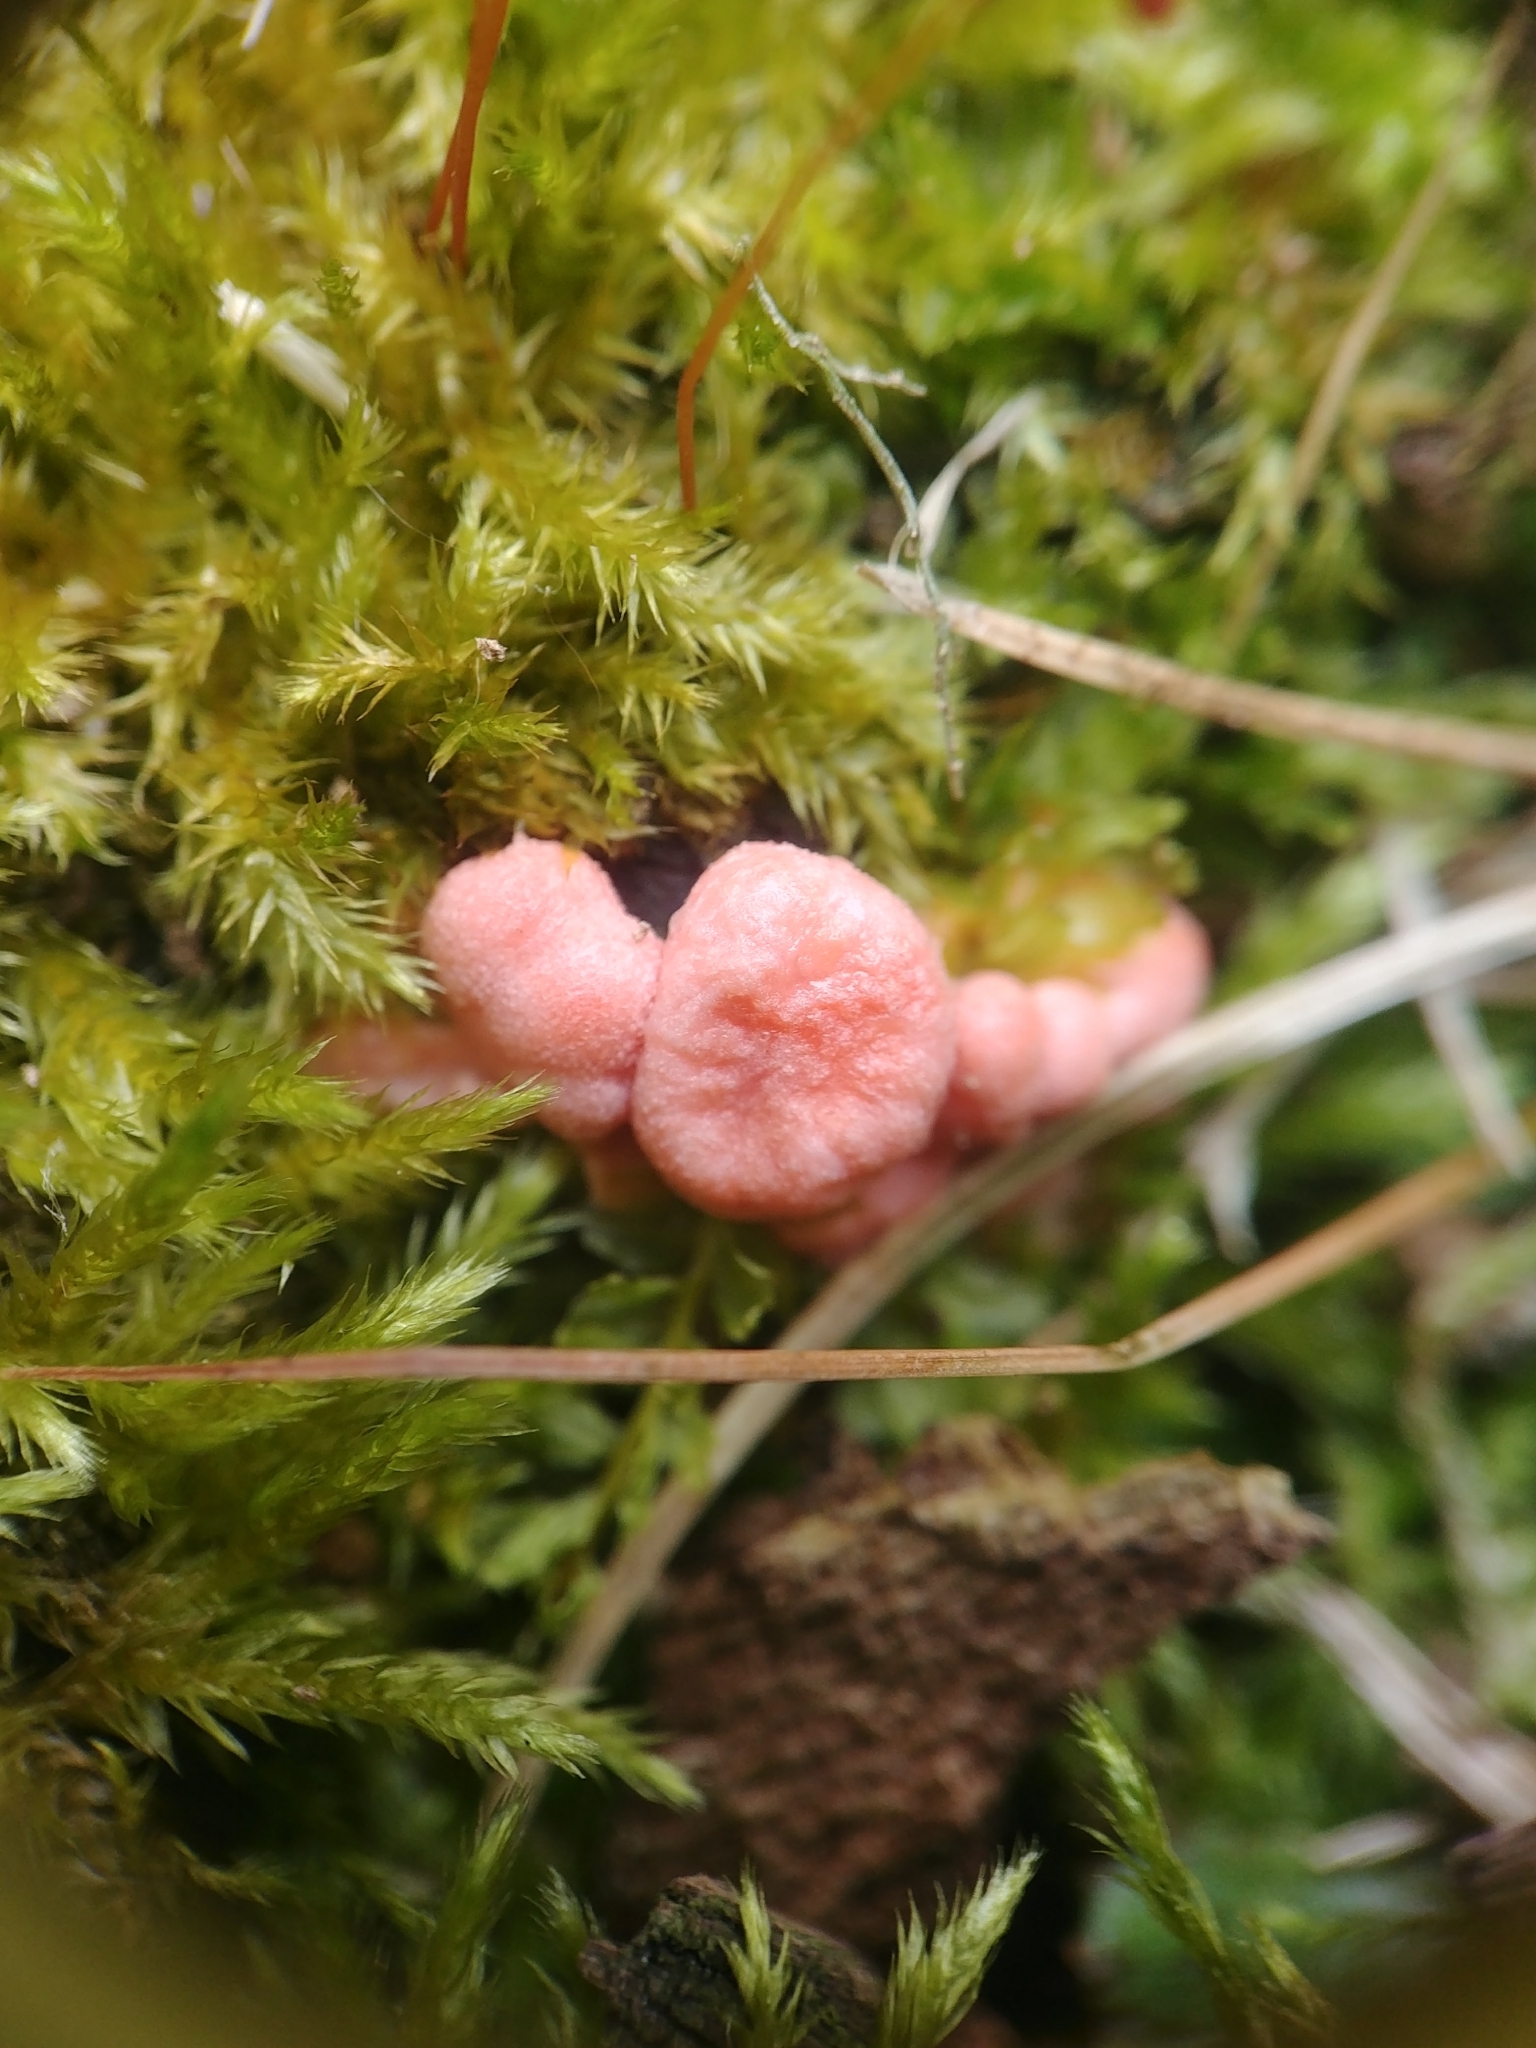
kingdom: Protozoa
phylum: Mycetozoa
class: Myxomycetes
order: Cribrariales
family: Tubiferaceae
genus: Lycogala
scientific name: Lycogala epidendrum
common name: Wolf's milk
